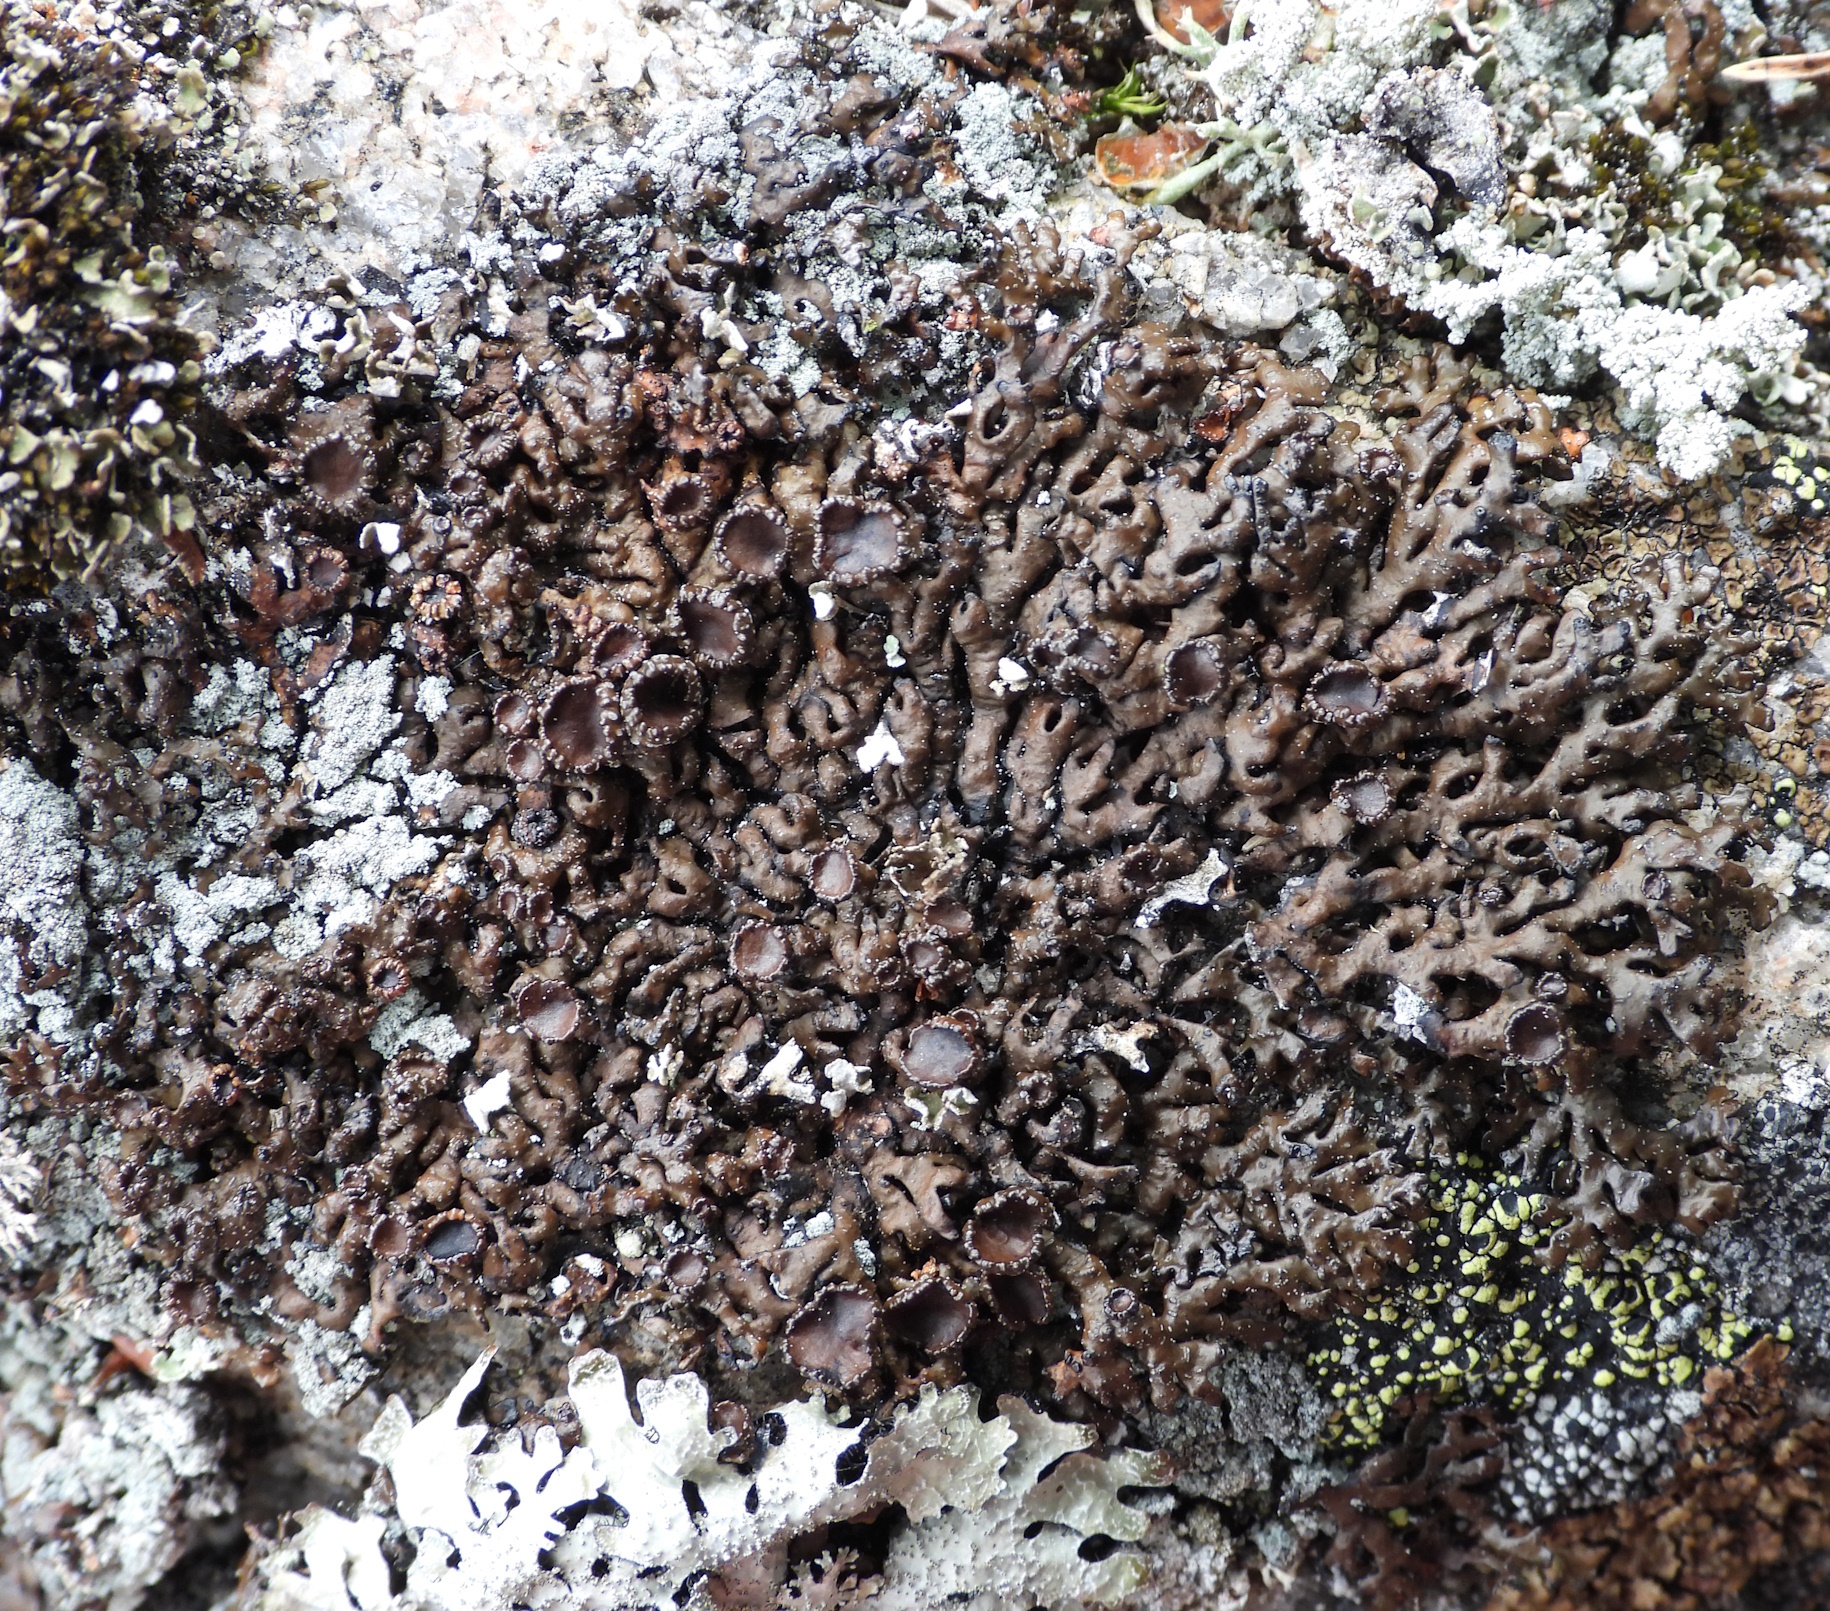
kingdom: Fungi
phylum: Ascomycota
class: Lecanoromycetes
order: Lecanorales
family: Parmeliaceae
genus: Melanelia
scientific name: Melanelia stygia
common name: Alpine camouflage lichen
